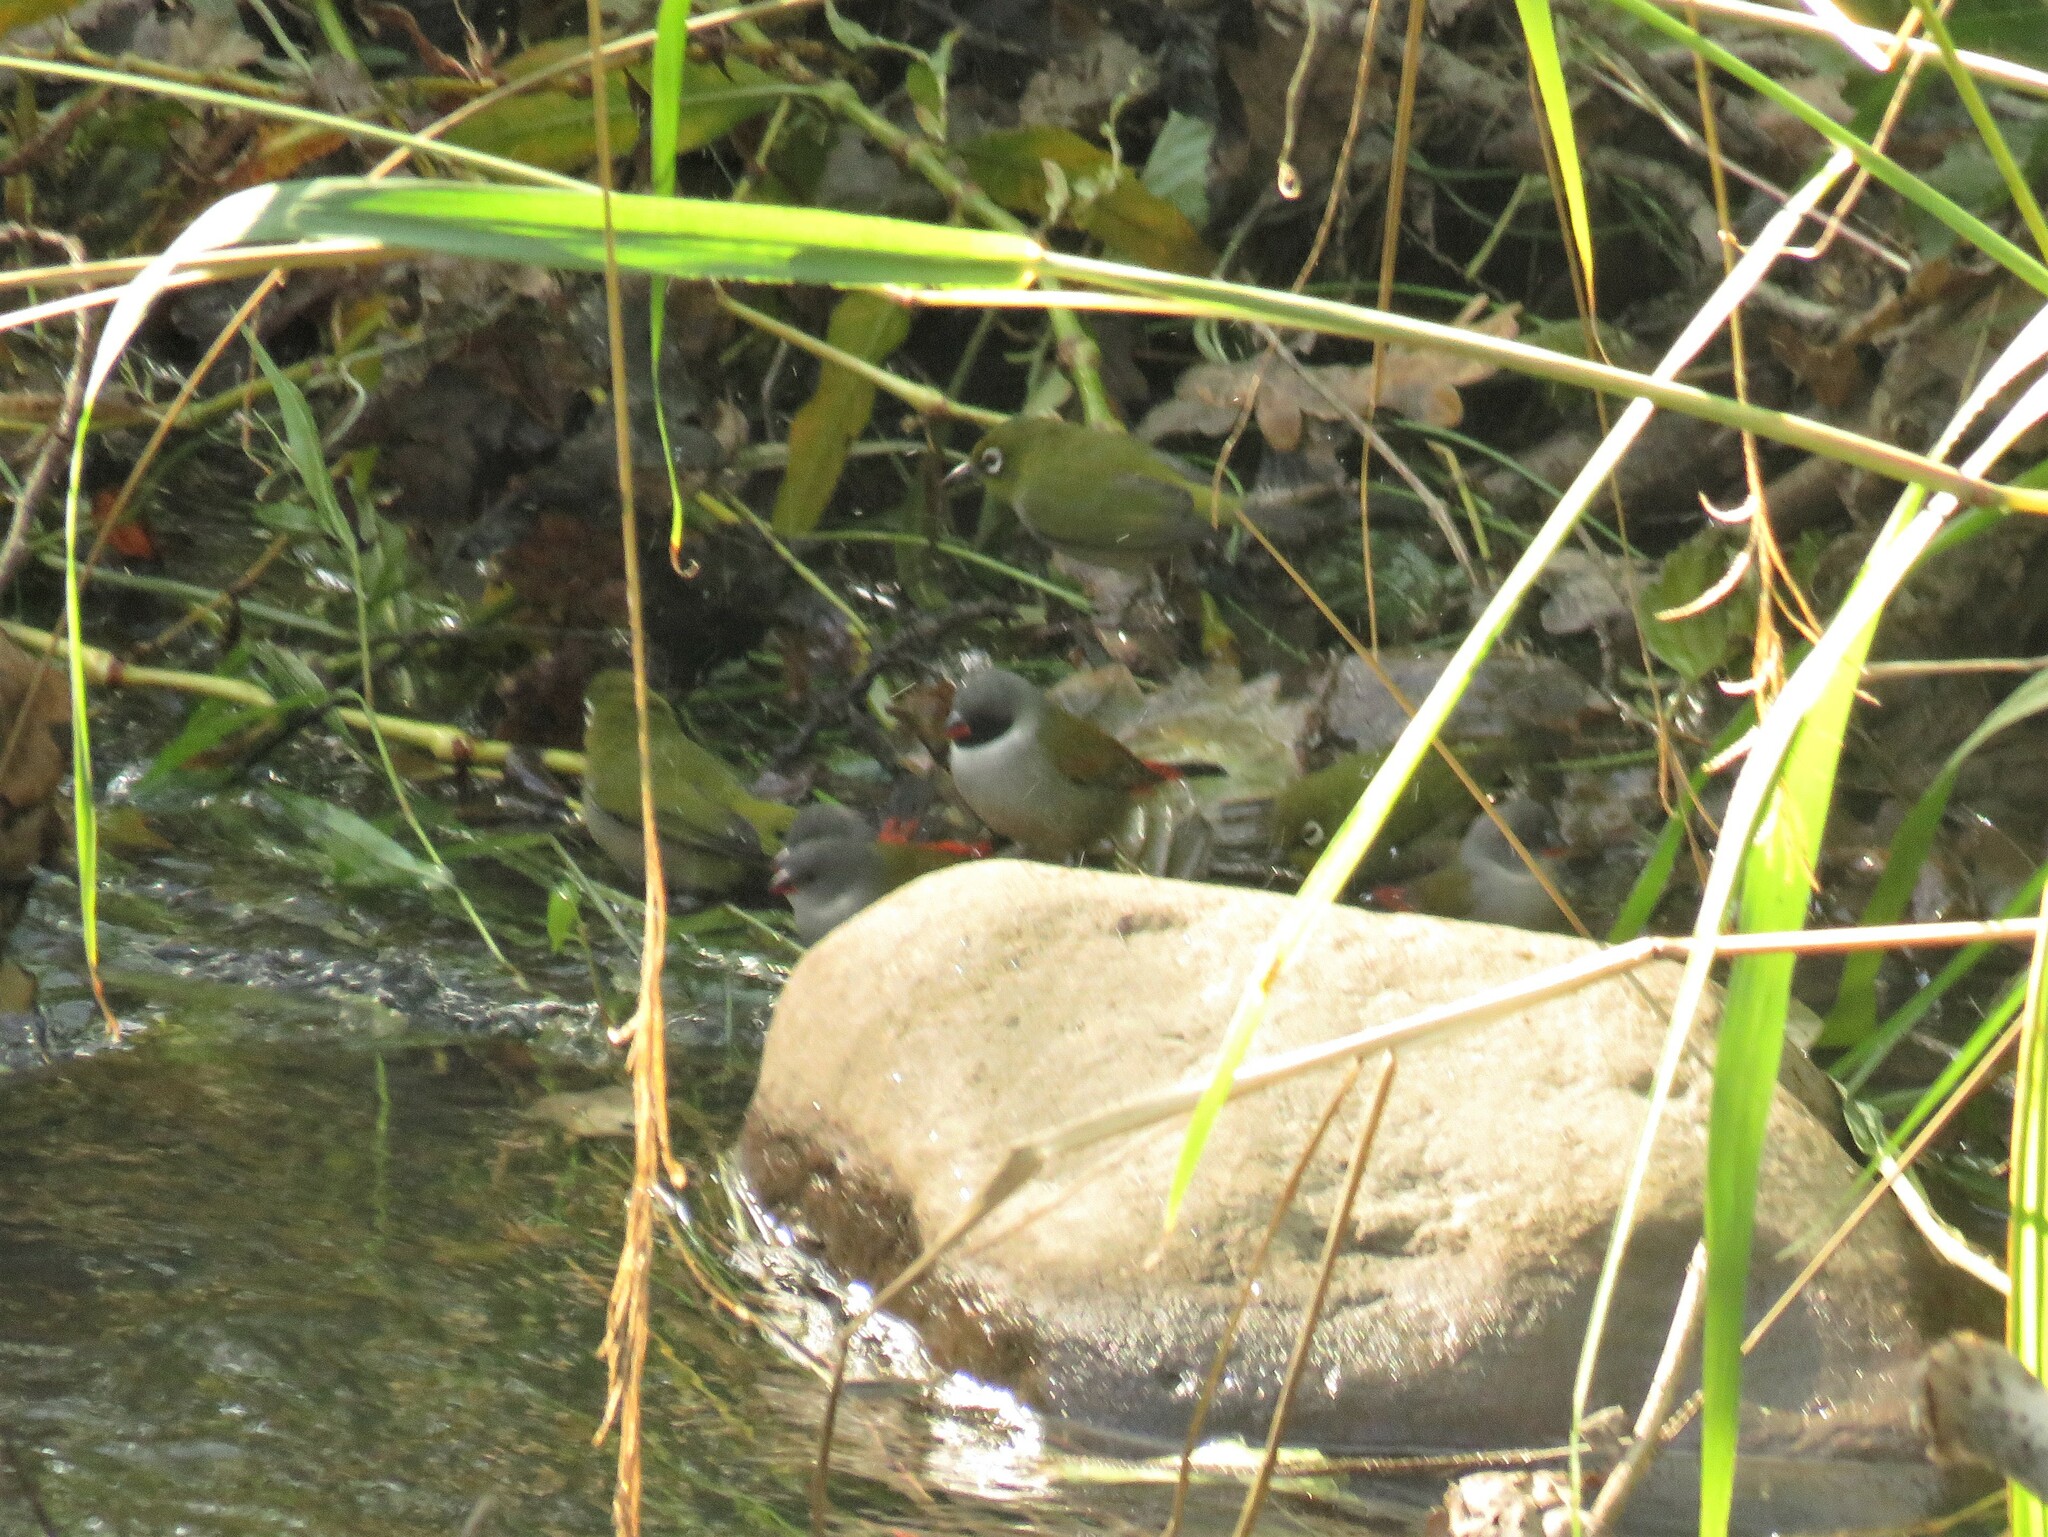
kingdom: Animalia
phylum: Chordata
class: Aves
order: Passeriformes
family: Estrildidae
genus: Coccopygia
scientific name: Coccopygia melanotis
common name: Swee waxbill
